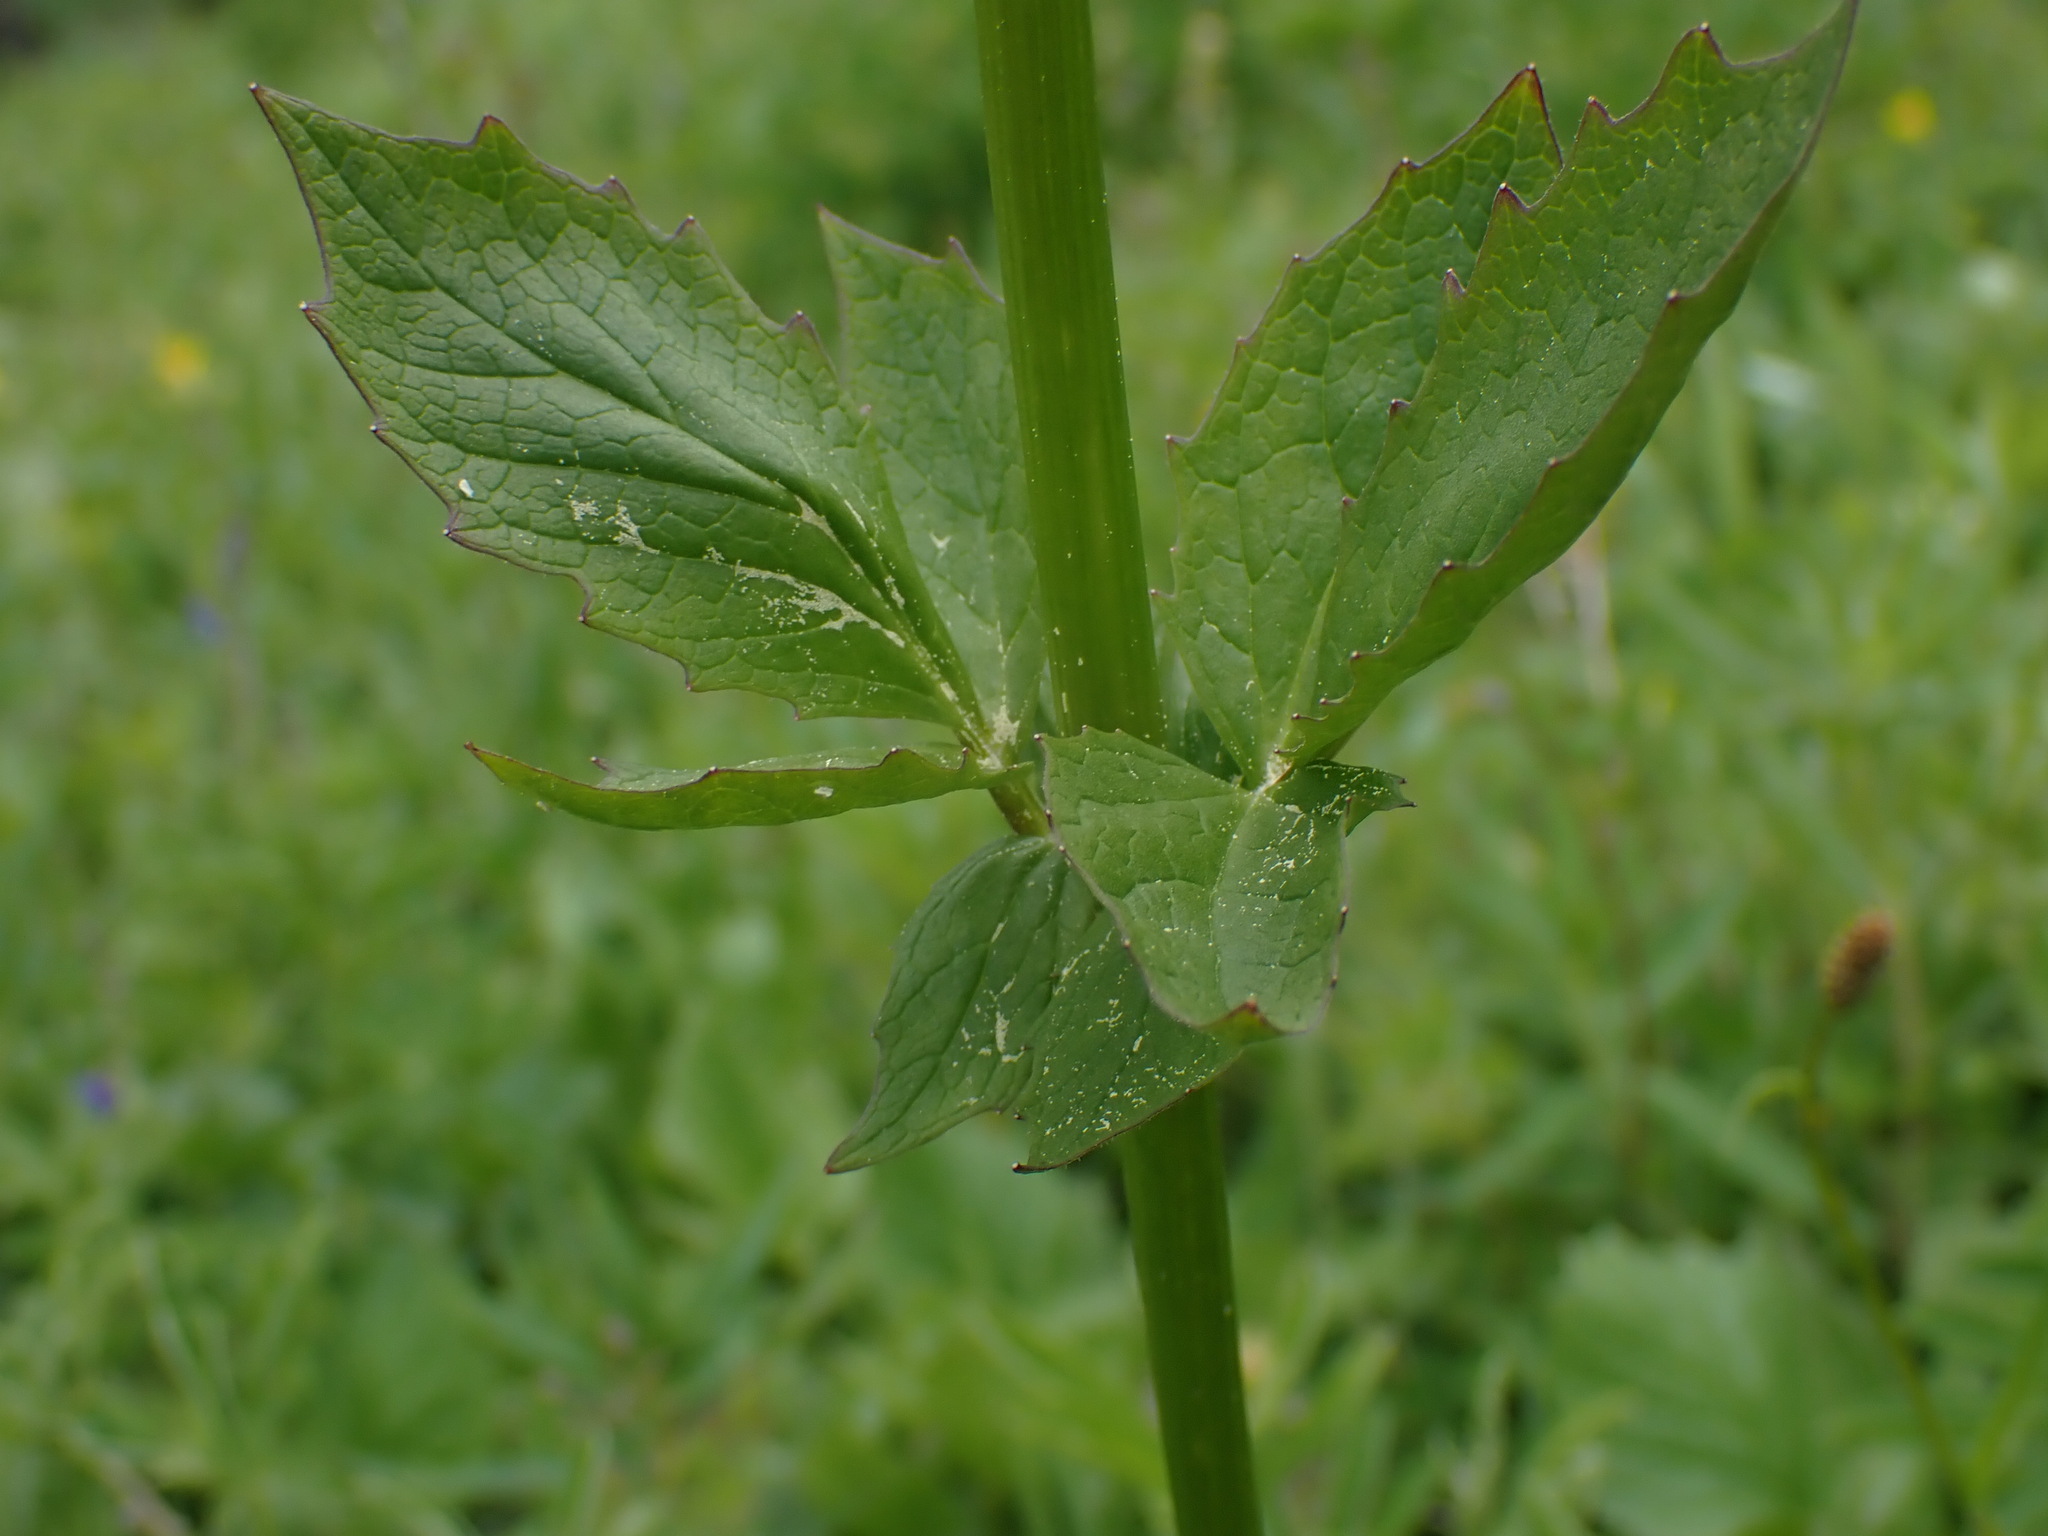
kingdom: Plantae
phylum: Tracheophyta
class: Magnoliopsida
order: Dipsacales
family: Caprifoliaceae
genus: Valeriana
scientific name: Valeriana sitchensis
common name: Pacific valerian
